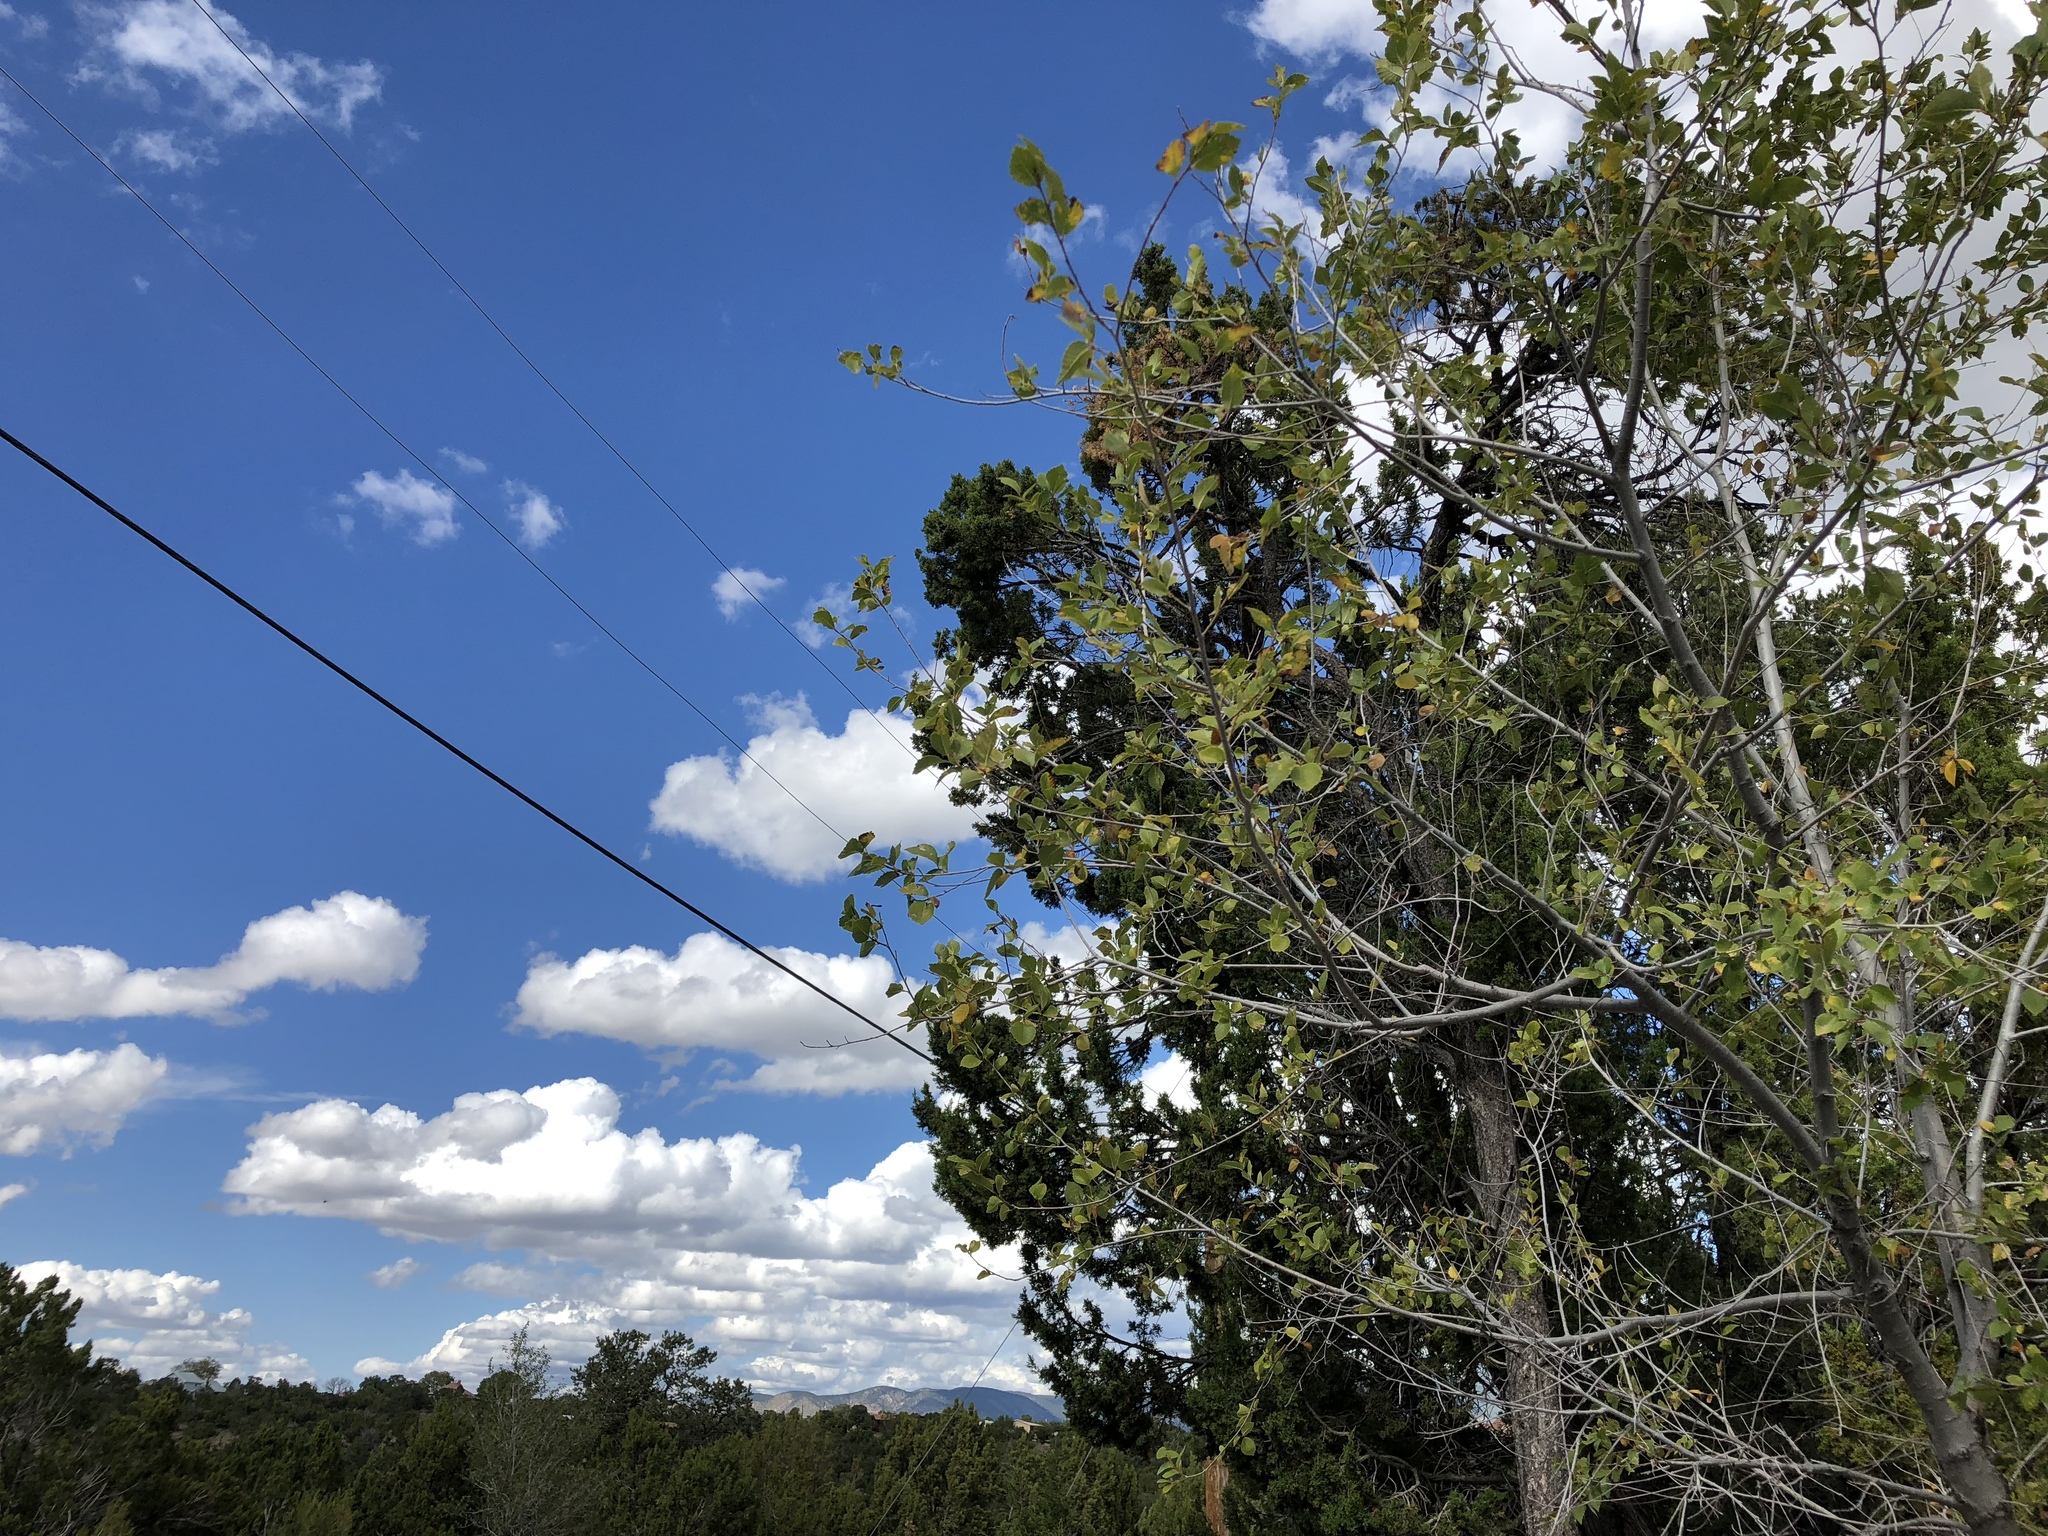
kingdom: Plantae
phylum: Tracheophyta
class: Magnoliopsida
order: Malpighiales
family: Salicaceae
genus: Populus
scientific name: Populus fremontii
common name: Fremont's cottonwood
